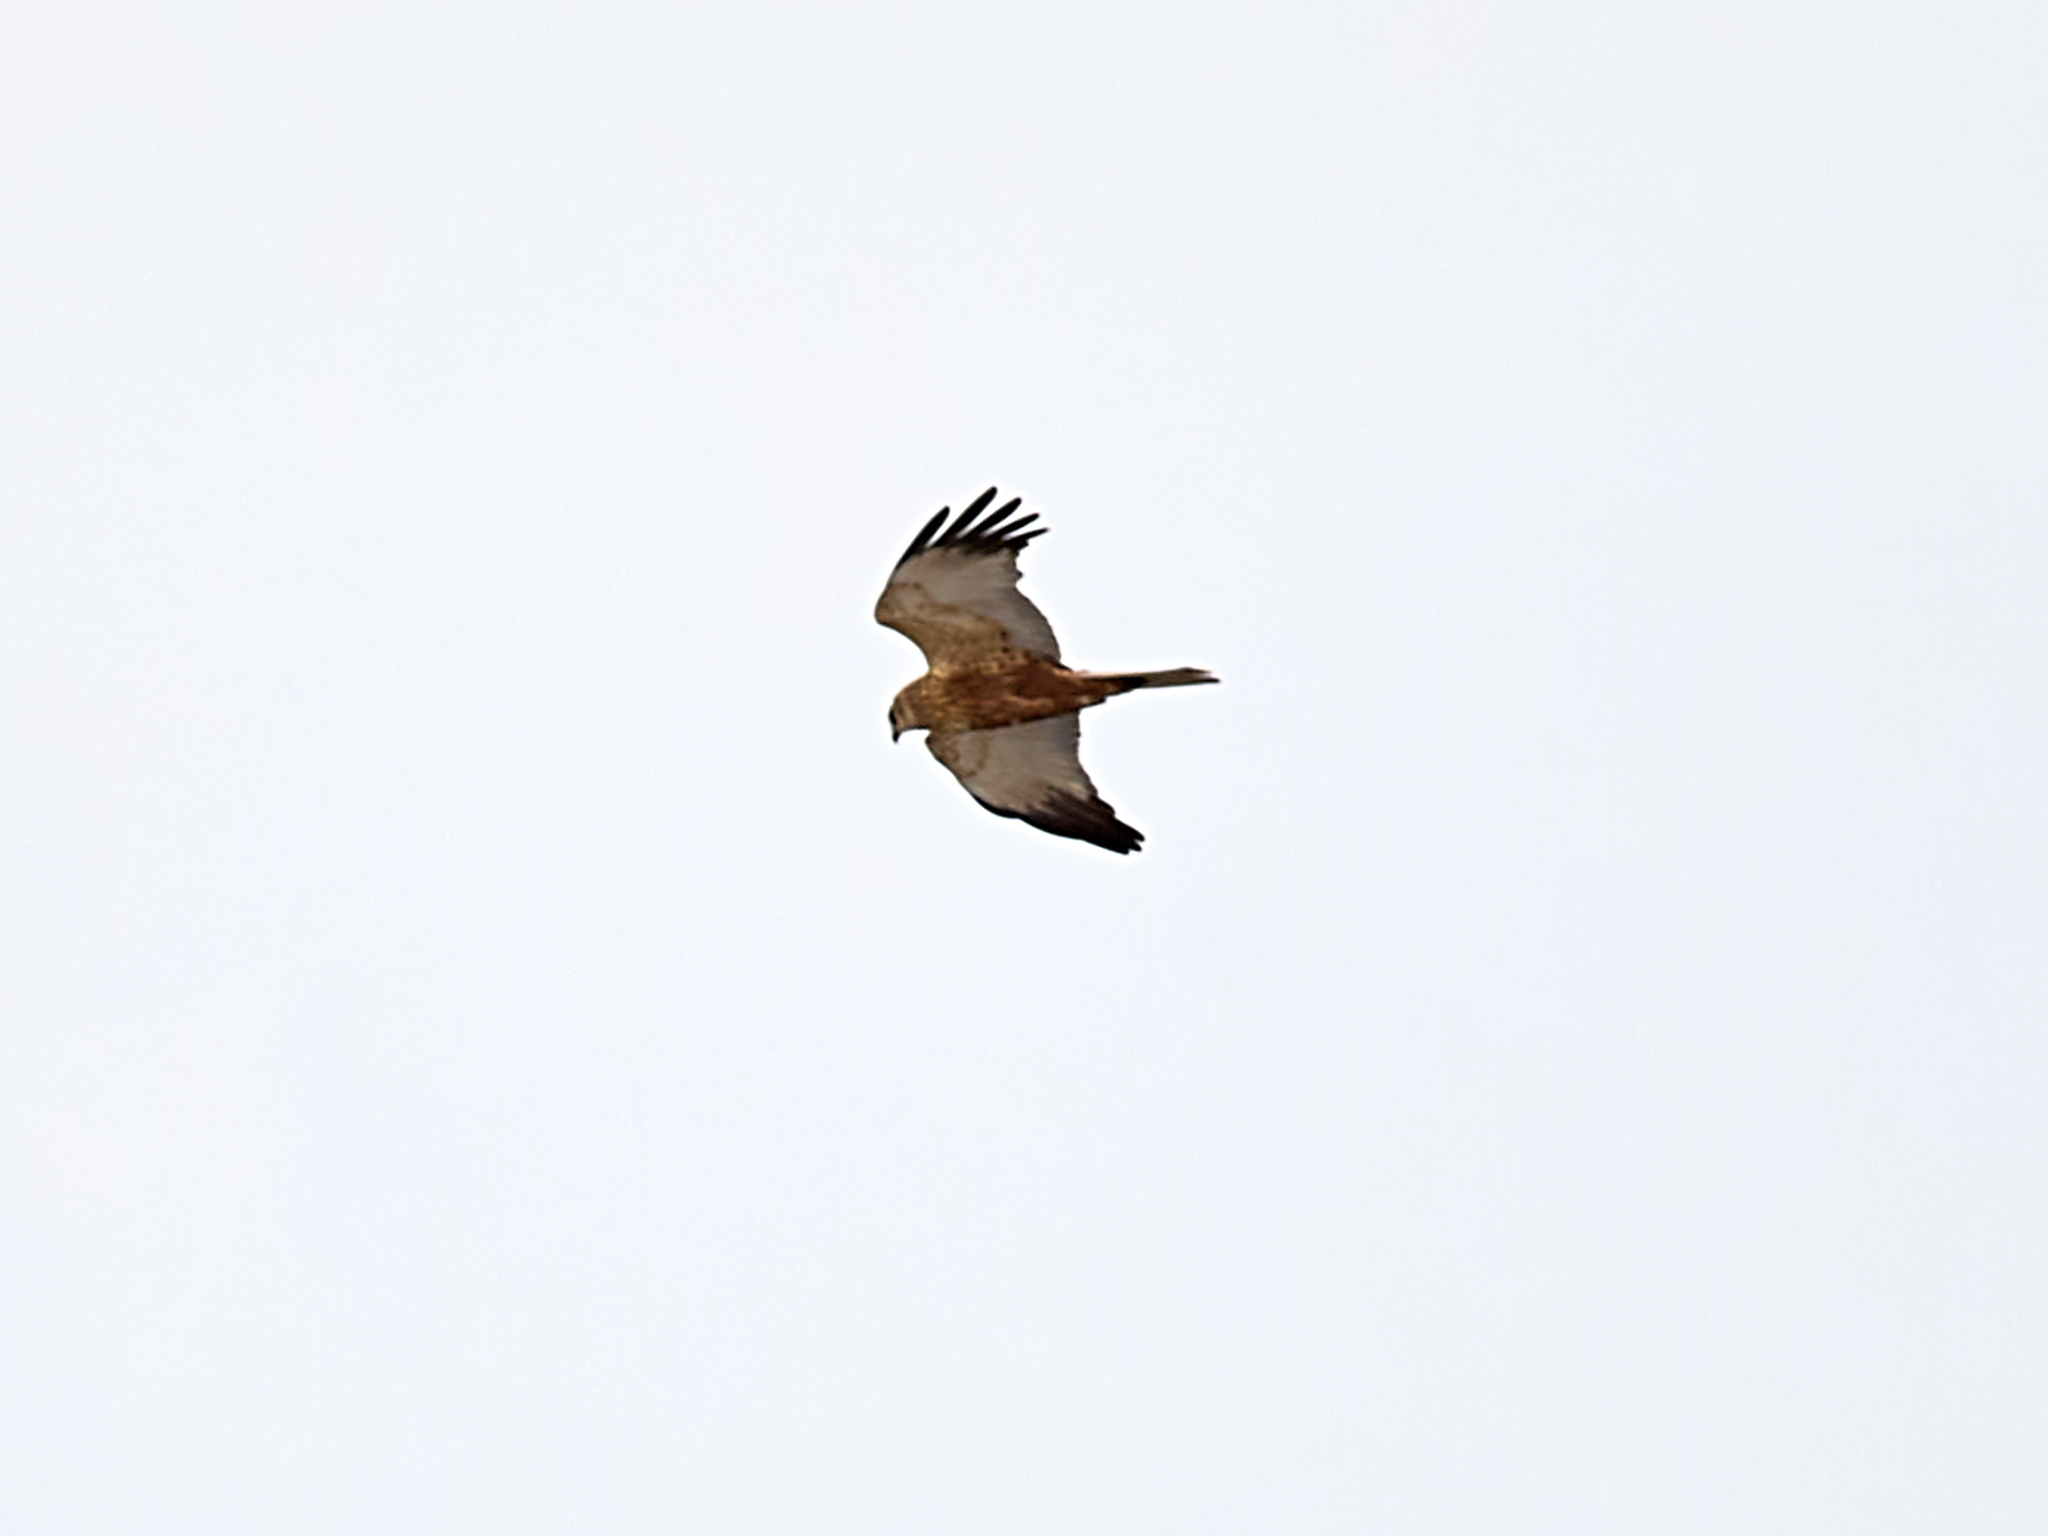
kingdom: Animalia
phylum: Chordata
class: Aves
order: Accipitriformes
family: Accipitridae
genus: Circus
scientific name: Circus aeruginosus
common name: Western marsh harrier
